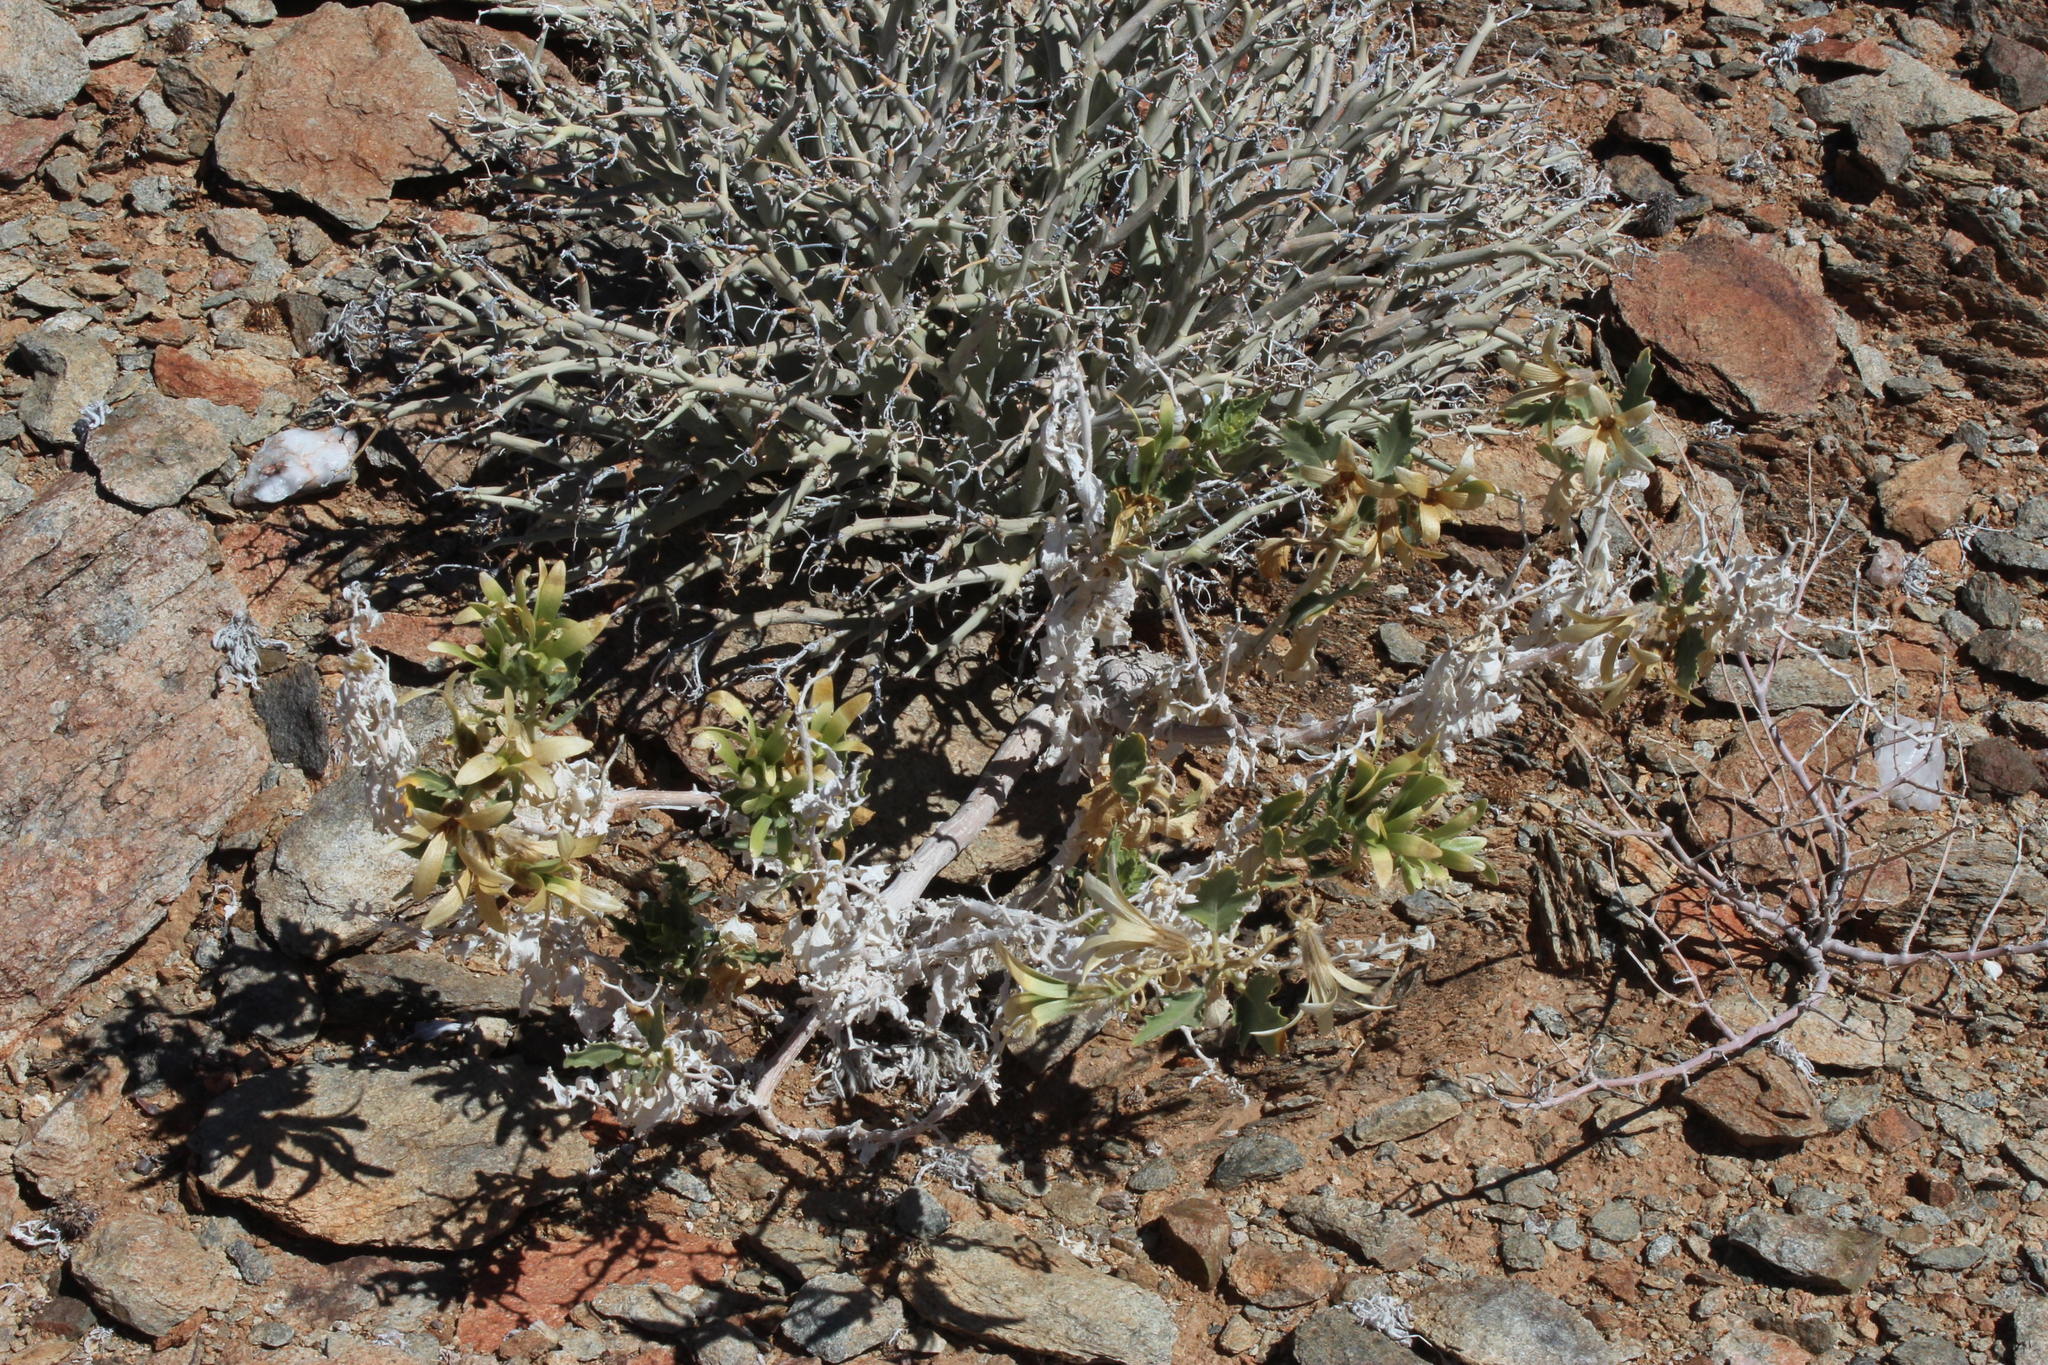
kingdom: Plantae
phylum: Tracheophyta
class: Magnoliopsida
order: Cornales
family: Loasaceae
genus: Kissenia
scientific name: Kissenia capensis
